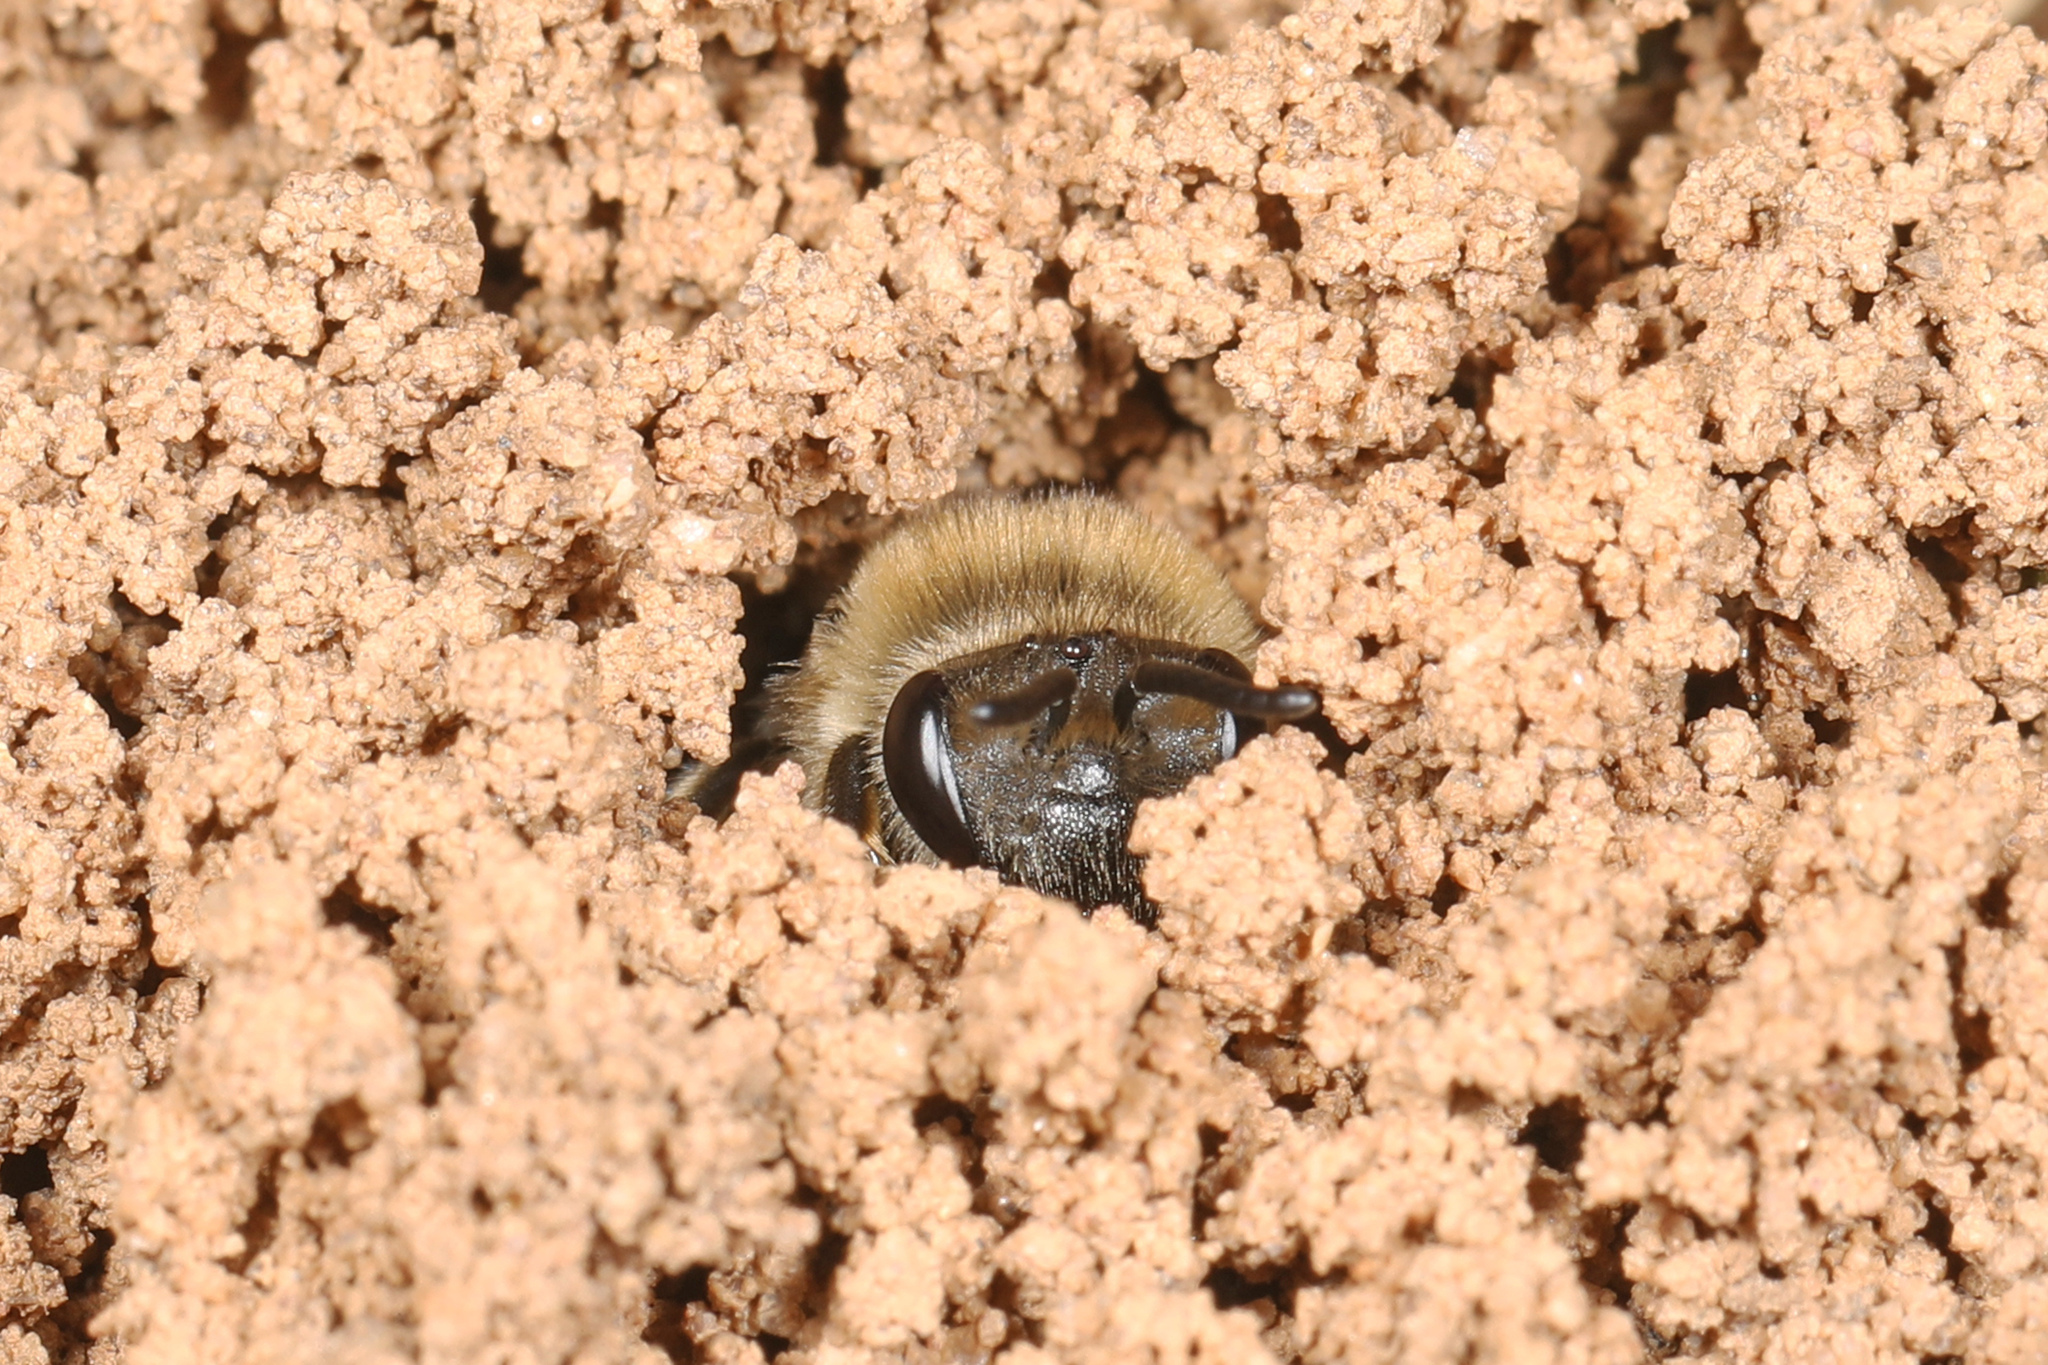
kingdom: Animalia
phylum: Arthropoda
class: Insecta
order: Hymenoptera
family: Colletidae
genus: Colletes
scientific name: Colletes inaequalis
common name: Unequal cellophane bee
